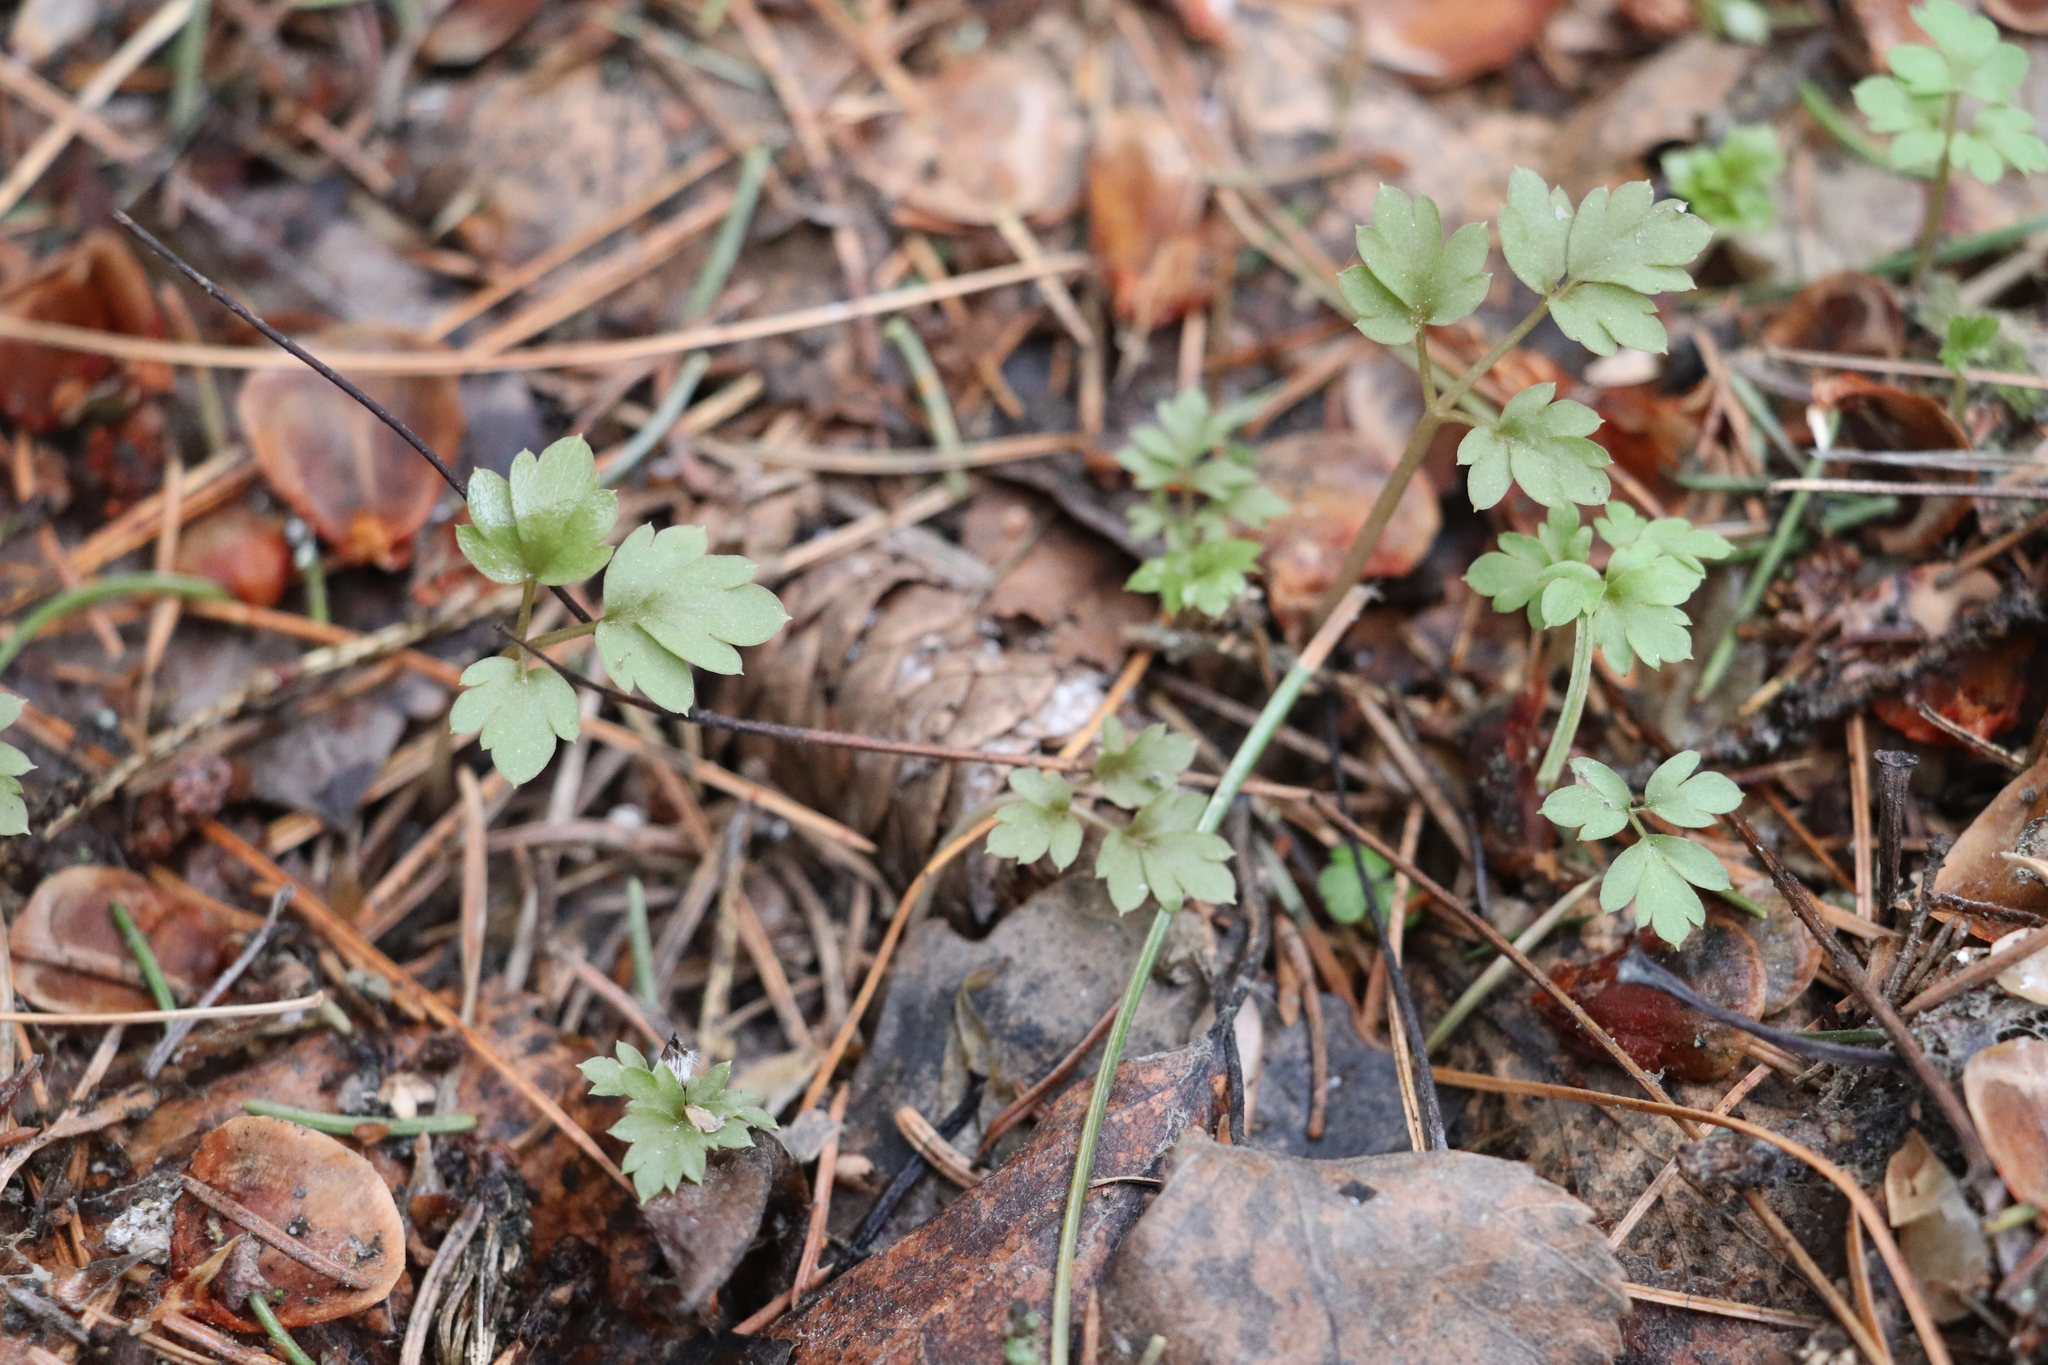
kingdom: Plantae
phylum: Tracheophyta
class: Magnoliopsida
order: Dipsacales
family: Viburnaceae
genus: Adoxa
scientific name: Adoxa moschatellina
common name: Moschatel
